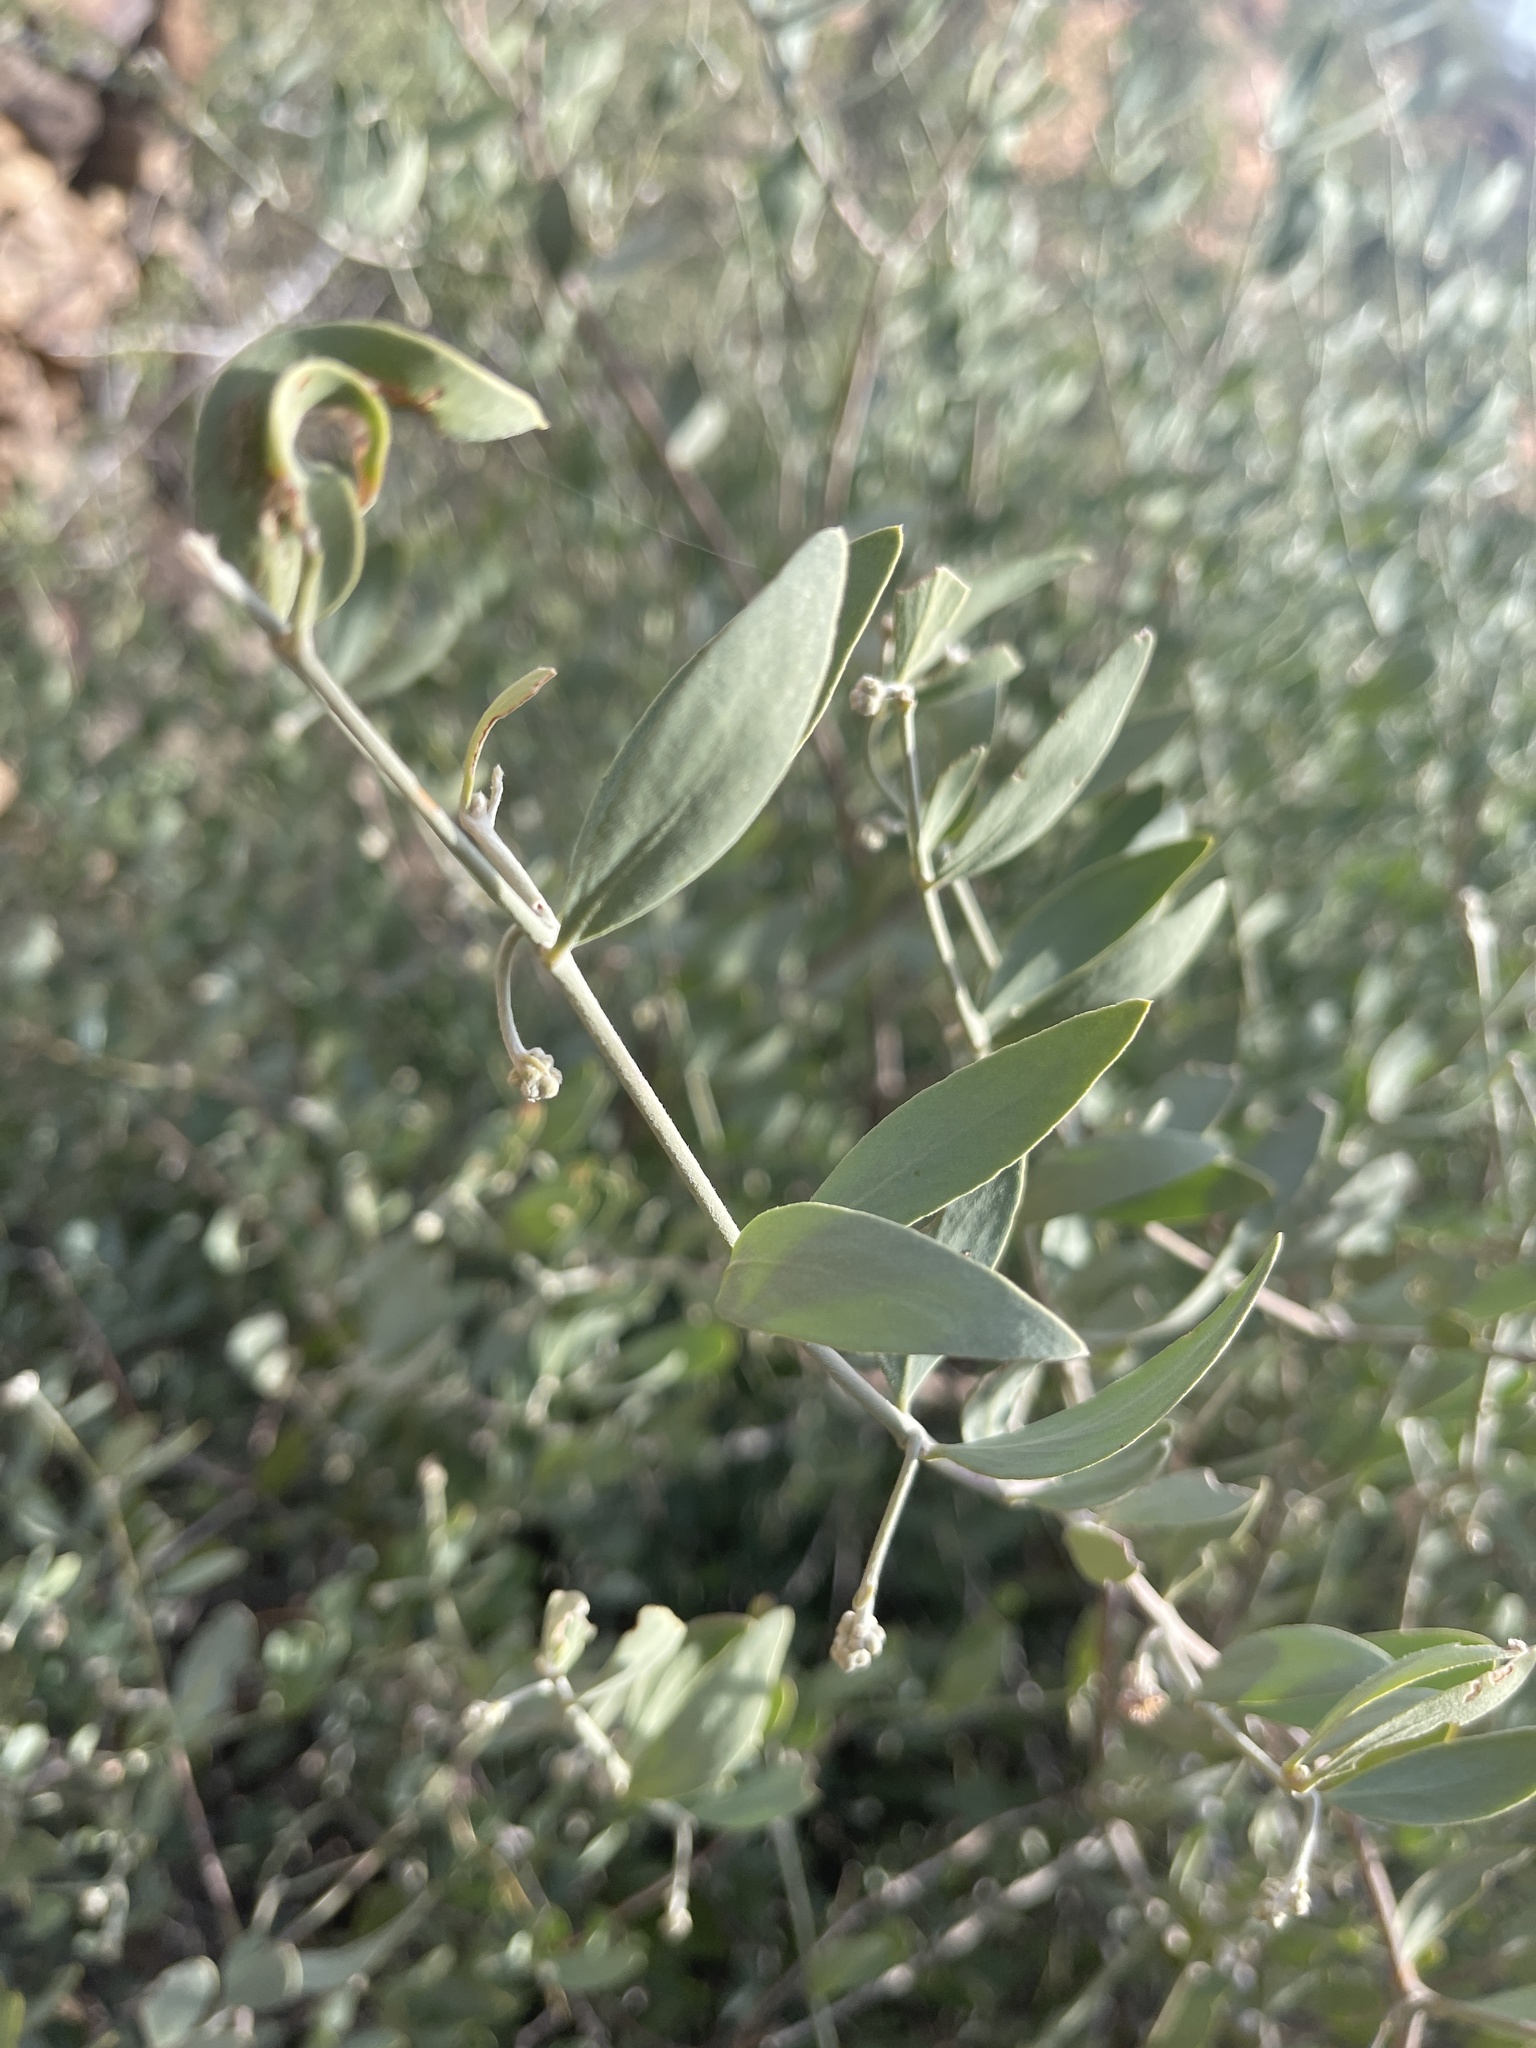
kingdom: Plantae
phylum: Tracheophyta
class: Magnoliopsida
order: Caryophyllales
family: Simmondsiaceae
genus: Simmondsia
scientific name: Simmondsia chinensis
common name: Jojoba
